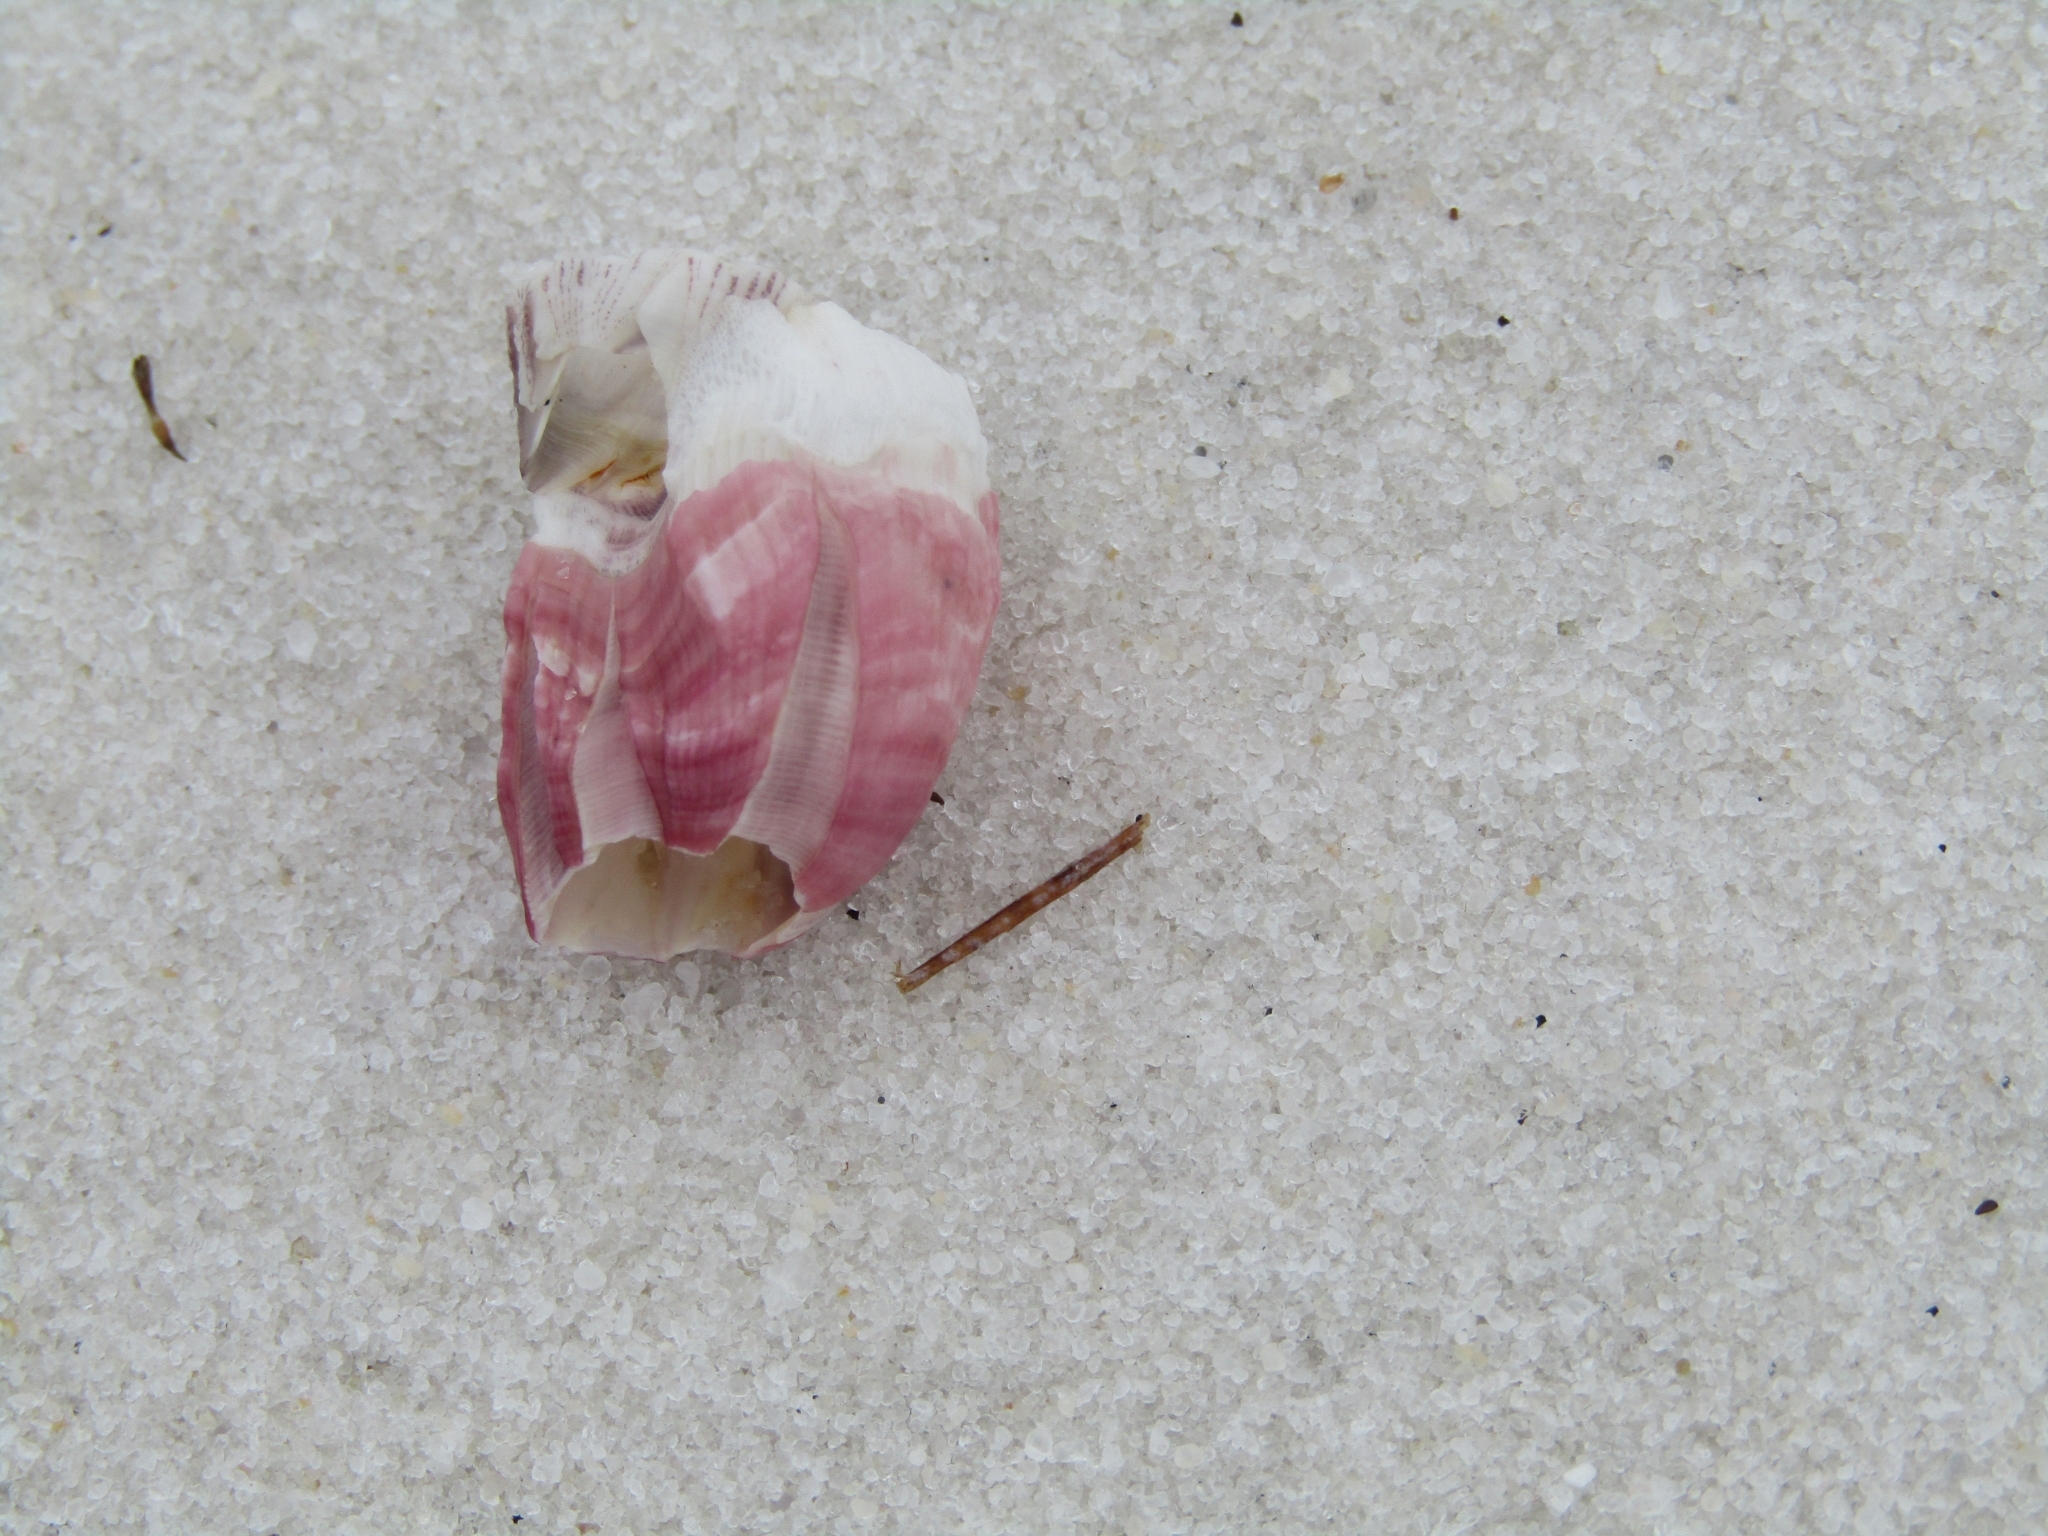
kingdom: Animalia
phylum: Arthropoda
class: Maxillopoda
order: Sessilia
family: Balanidae
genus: Megabalanus
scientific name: Megabalanus tintinnabulum
